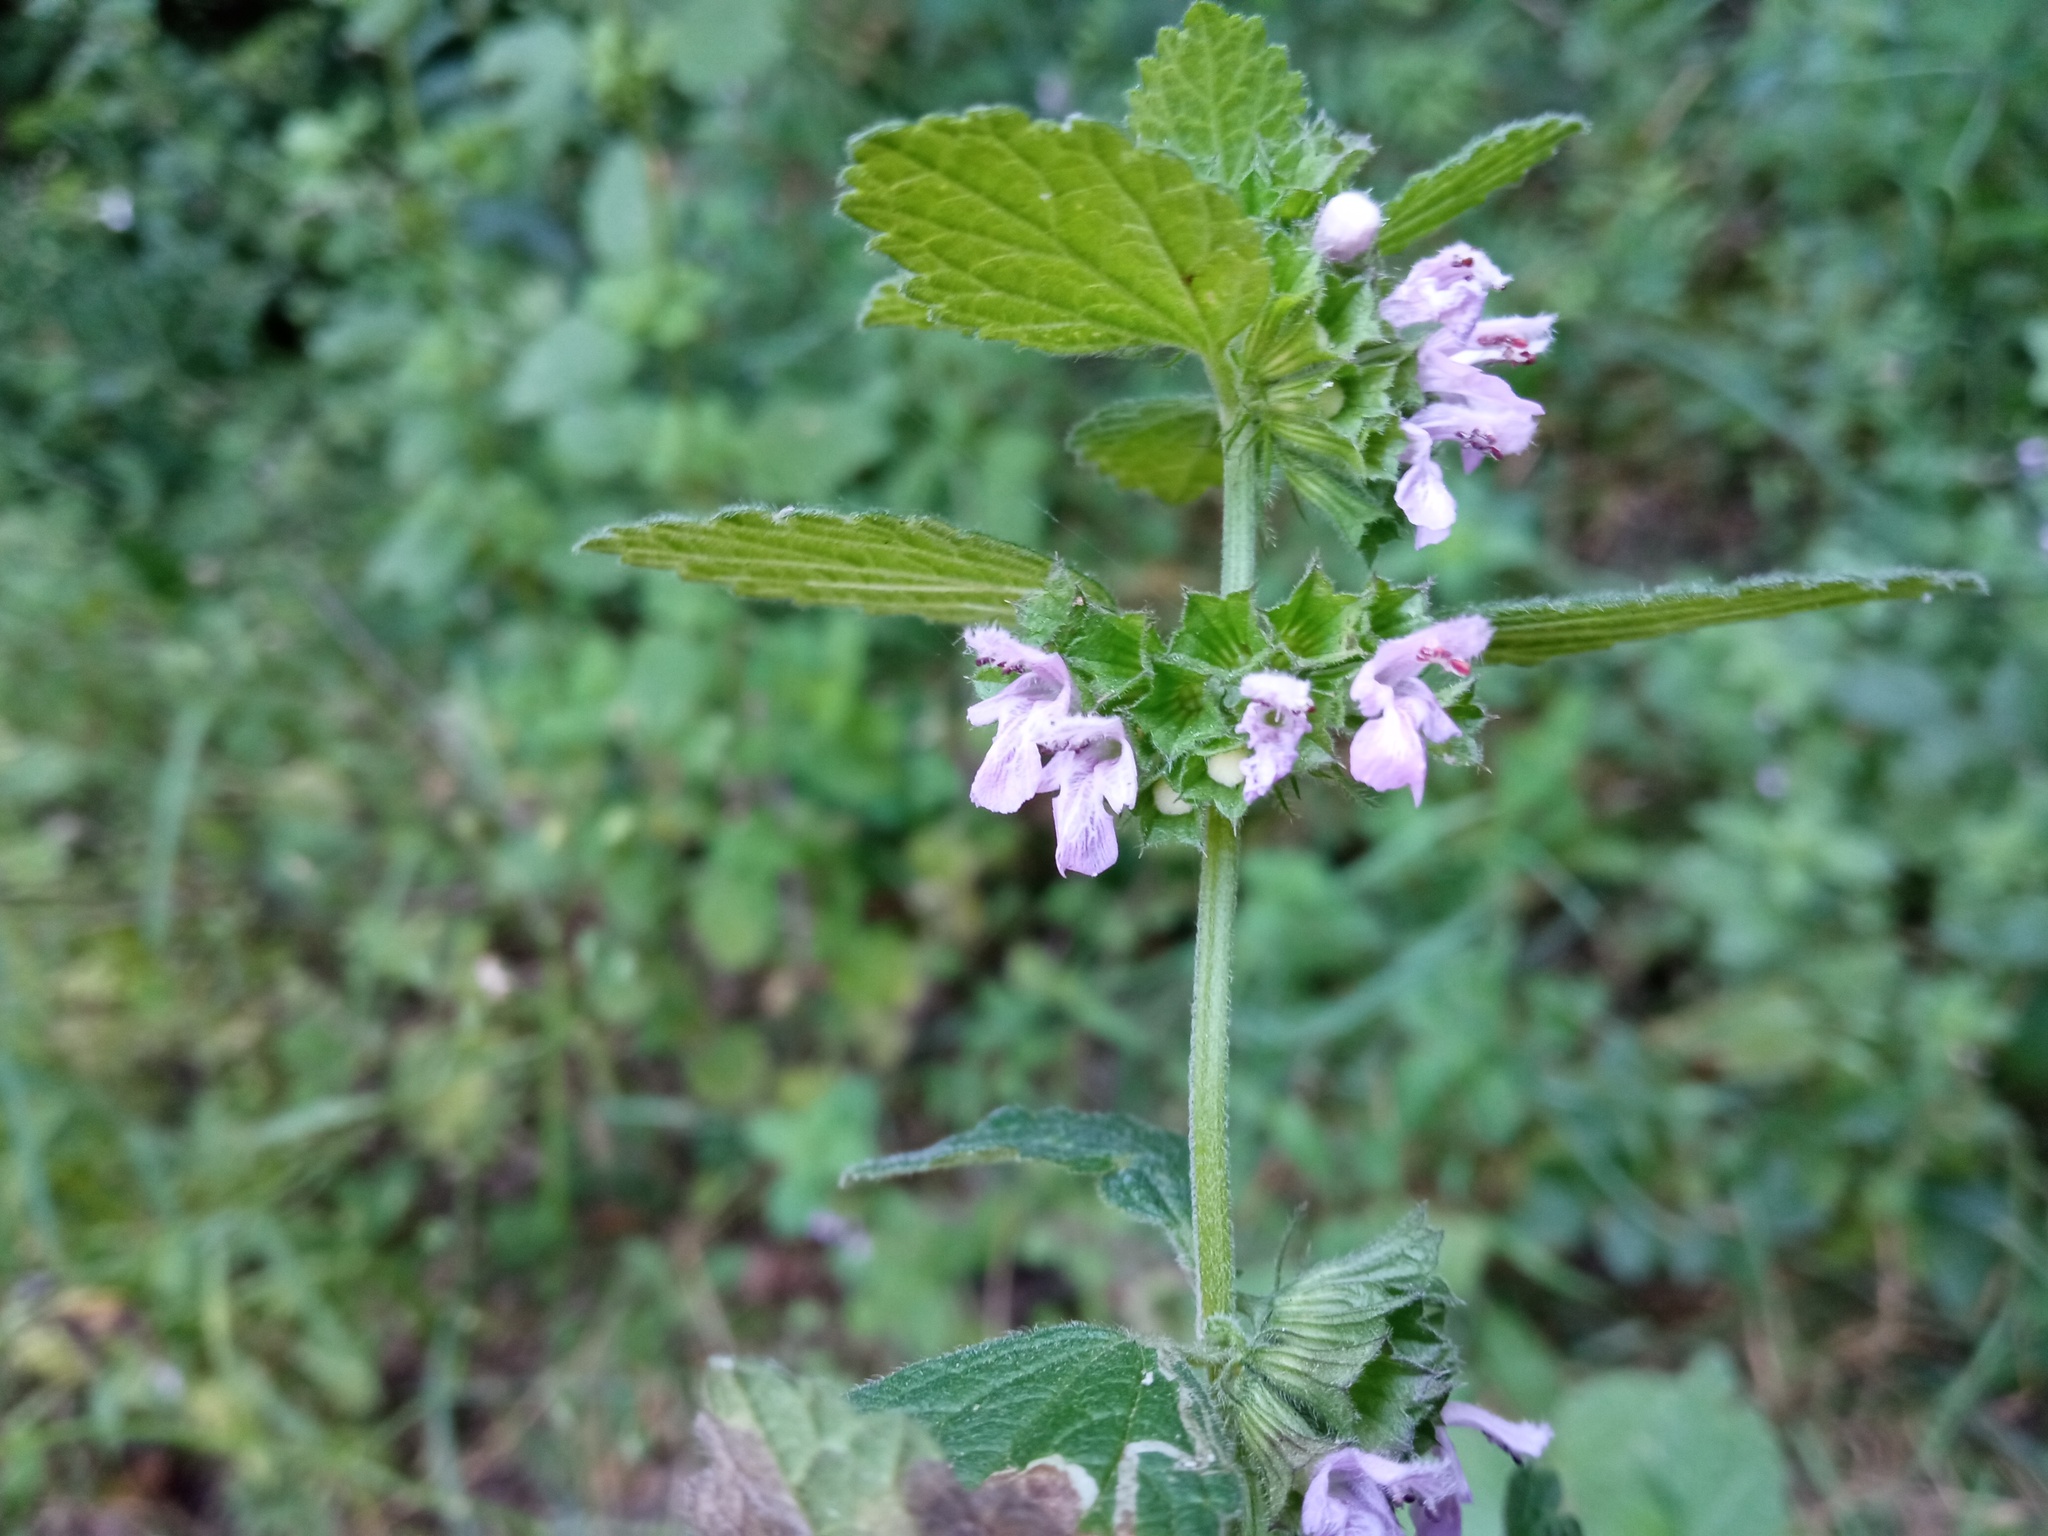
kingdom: Plantae
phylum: Tracheophyta
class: Magnoliopsida
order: Lamiales
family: Lamiaceae
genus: Ballota
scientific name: Ballota nigra
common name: Black horehound
